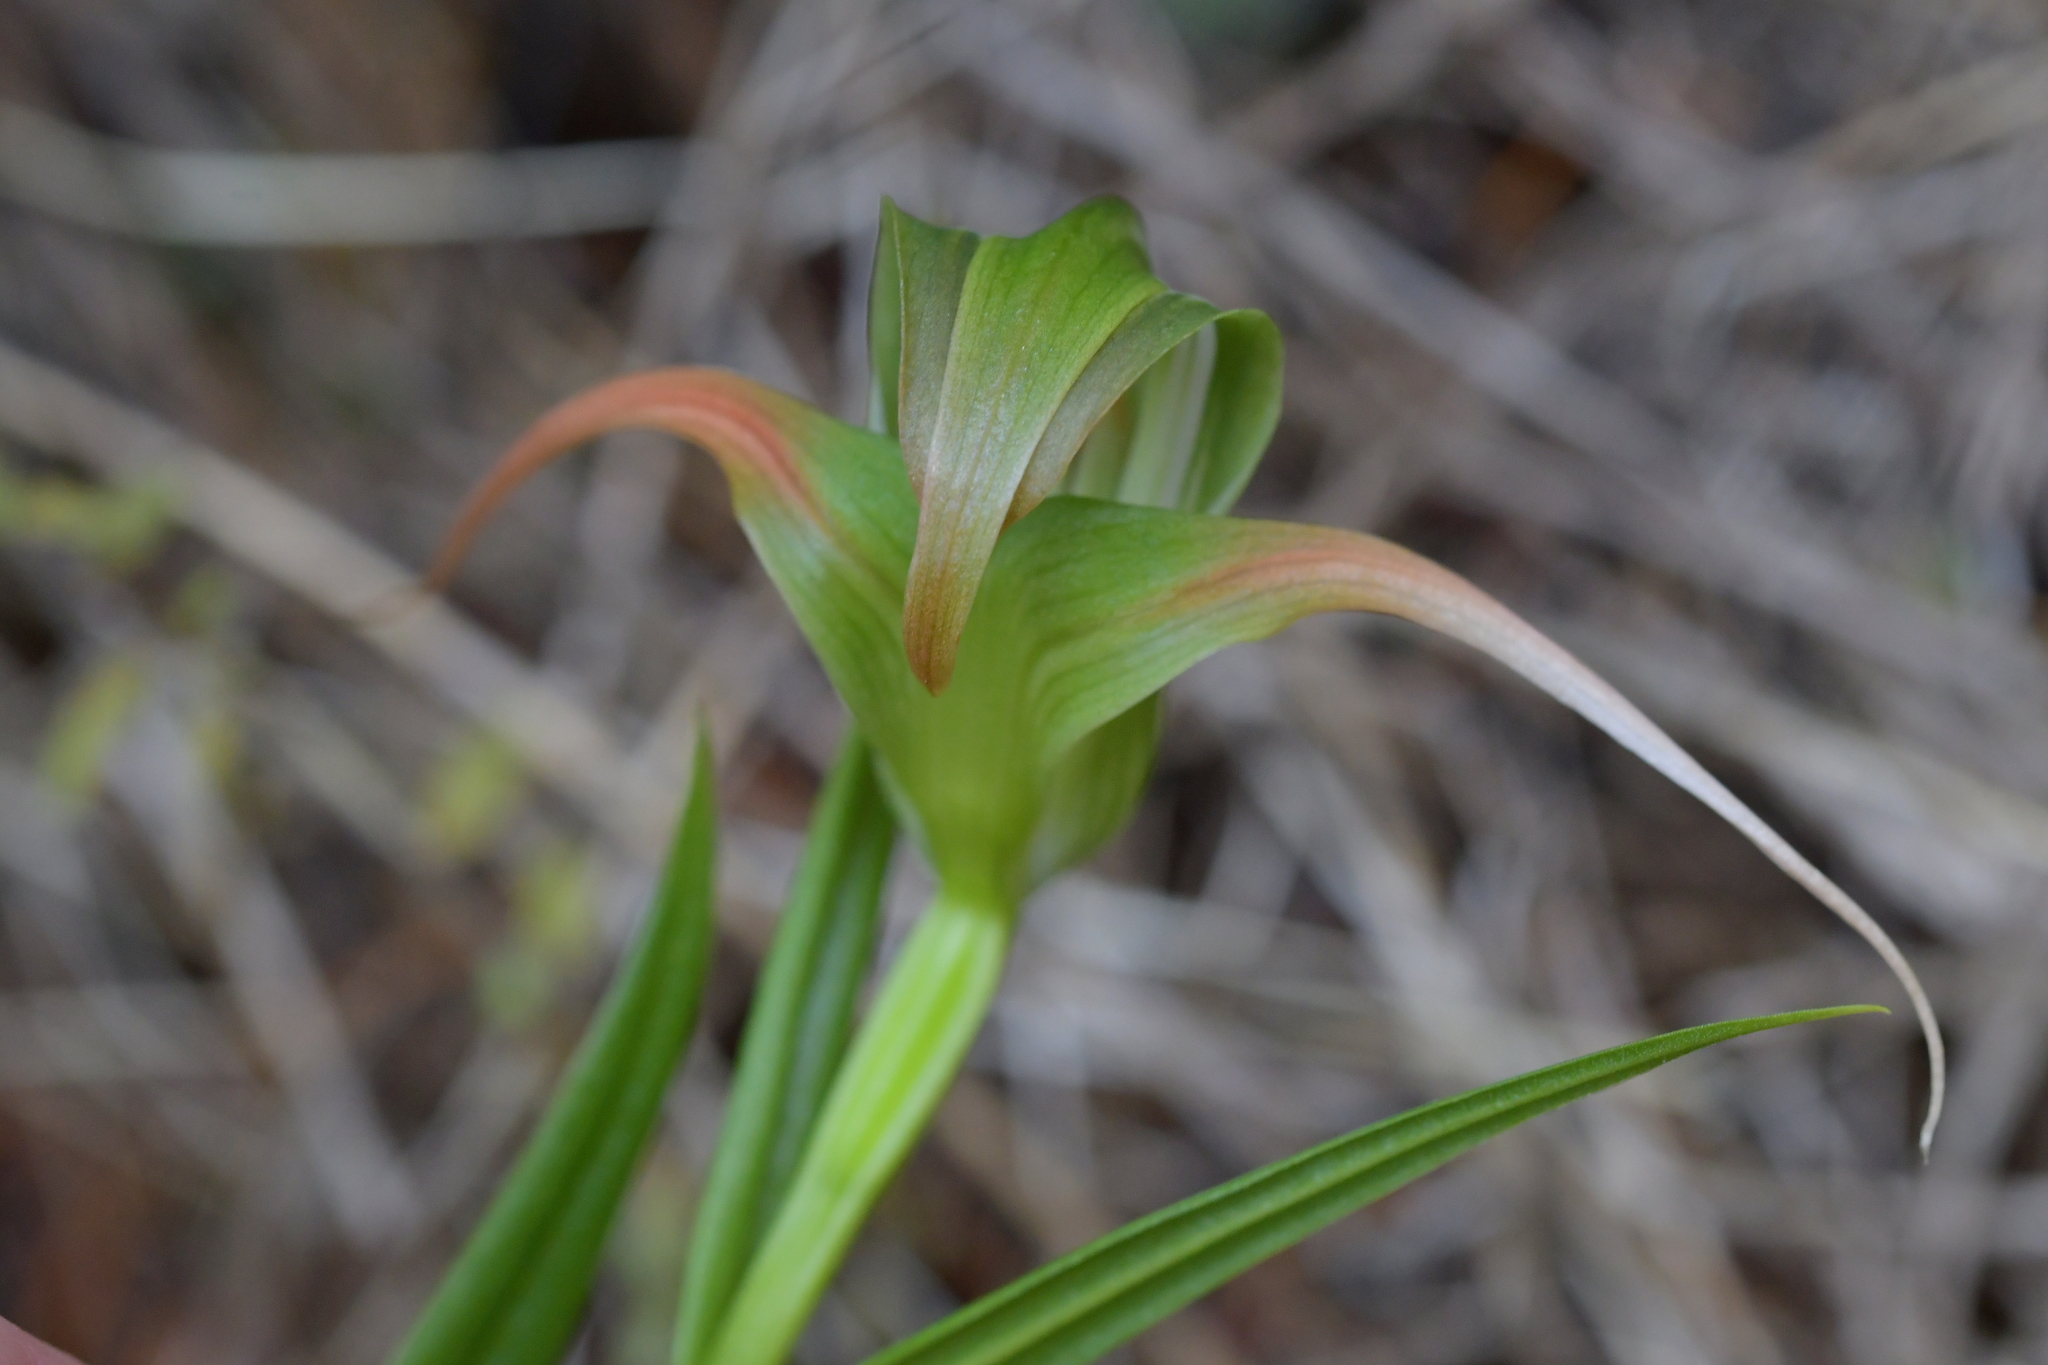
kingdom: Plantae
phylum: Tracheophyta
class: Liliopsida
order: Asparagales
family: Orchidaceae
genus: Pterostylis
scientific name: Pterostylis patens
